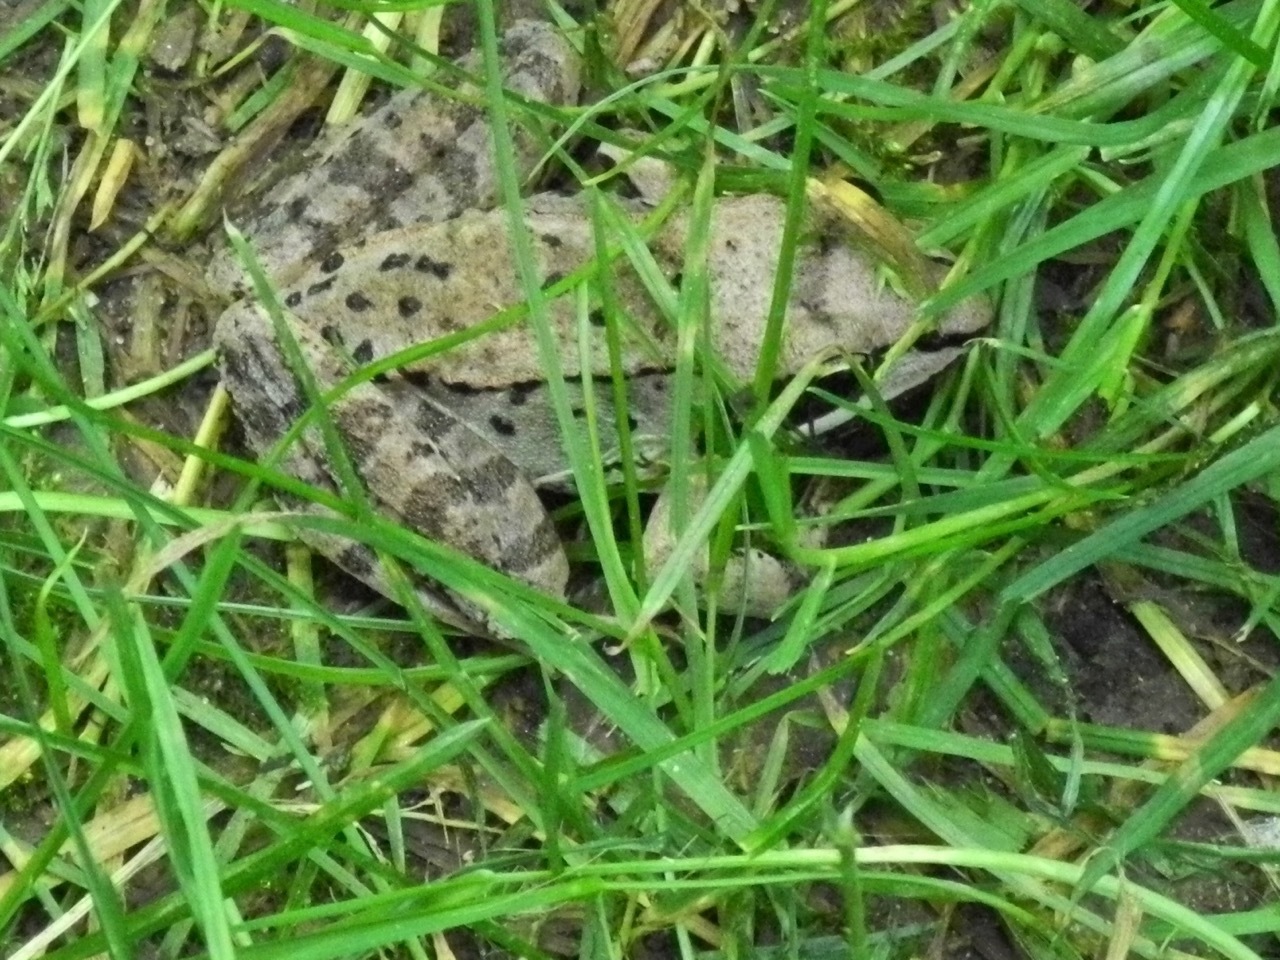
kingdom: Animalia
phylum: Chordata
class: Amphibia
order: Anura
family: Ranidae
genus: Lithobates
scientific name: Lithobates sylvaticus
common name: Wood frog
